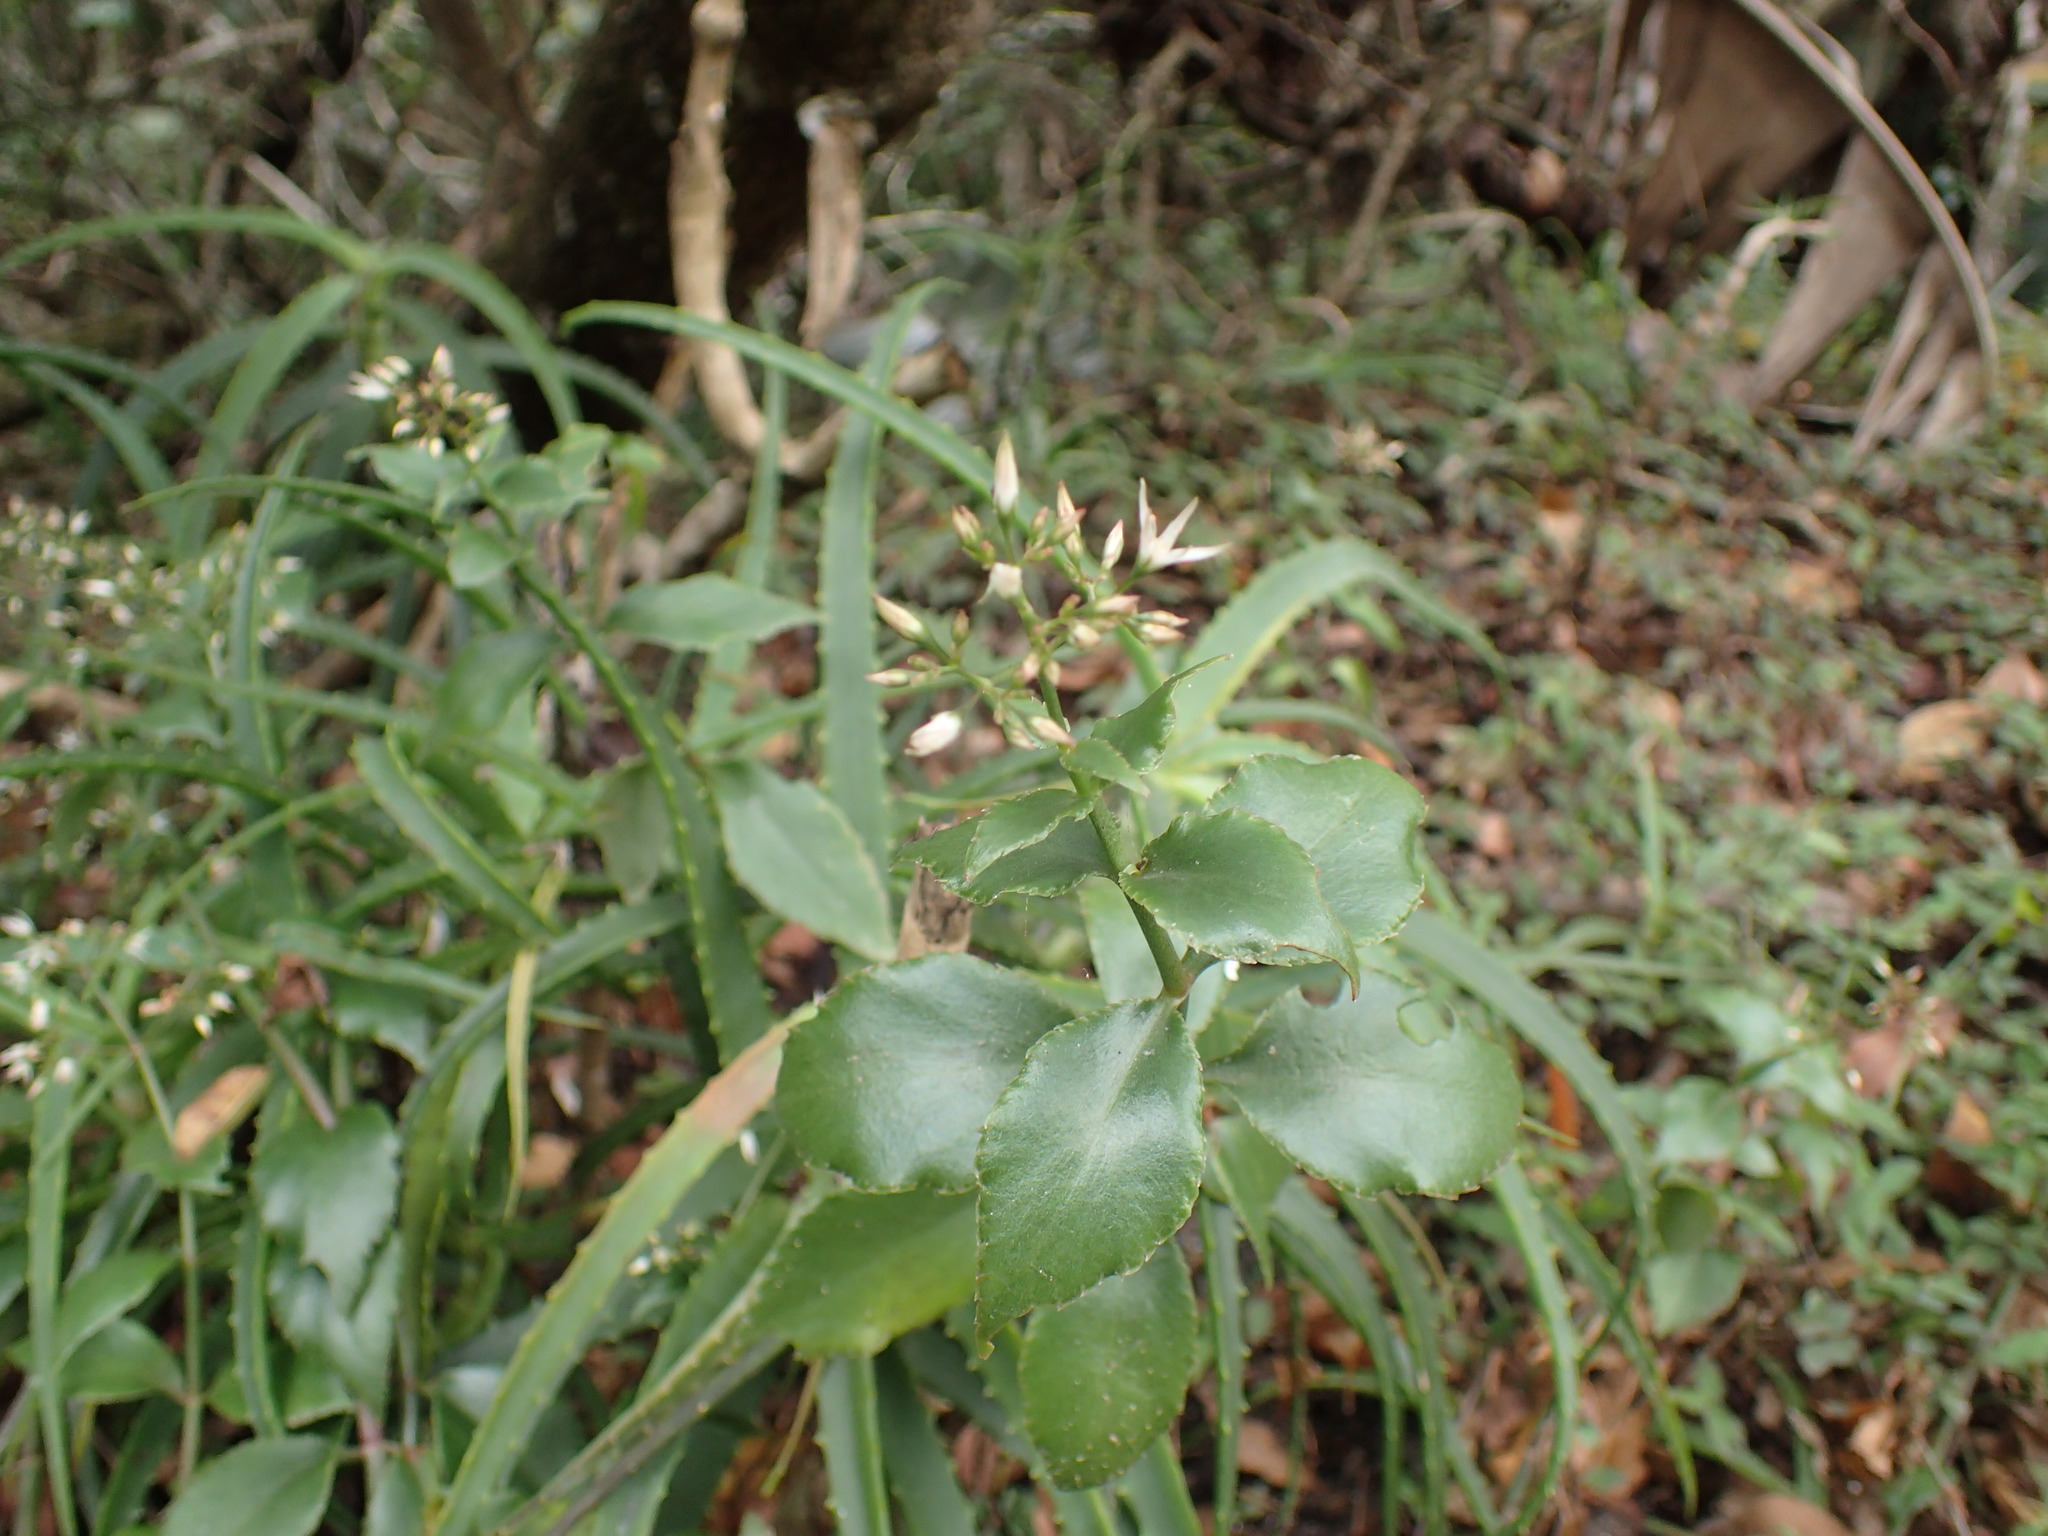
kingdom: Plantae
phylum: Tracheophyta
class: Magnoliopsida
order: Saxifragales
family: Crassulaceae
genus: Crassula
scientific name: Crassula sarmentosa
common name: Jade-tree
